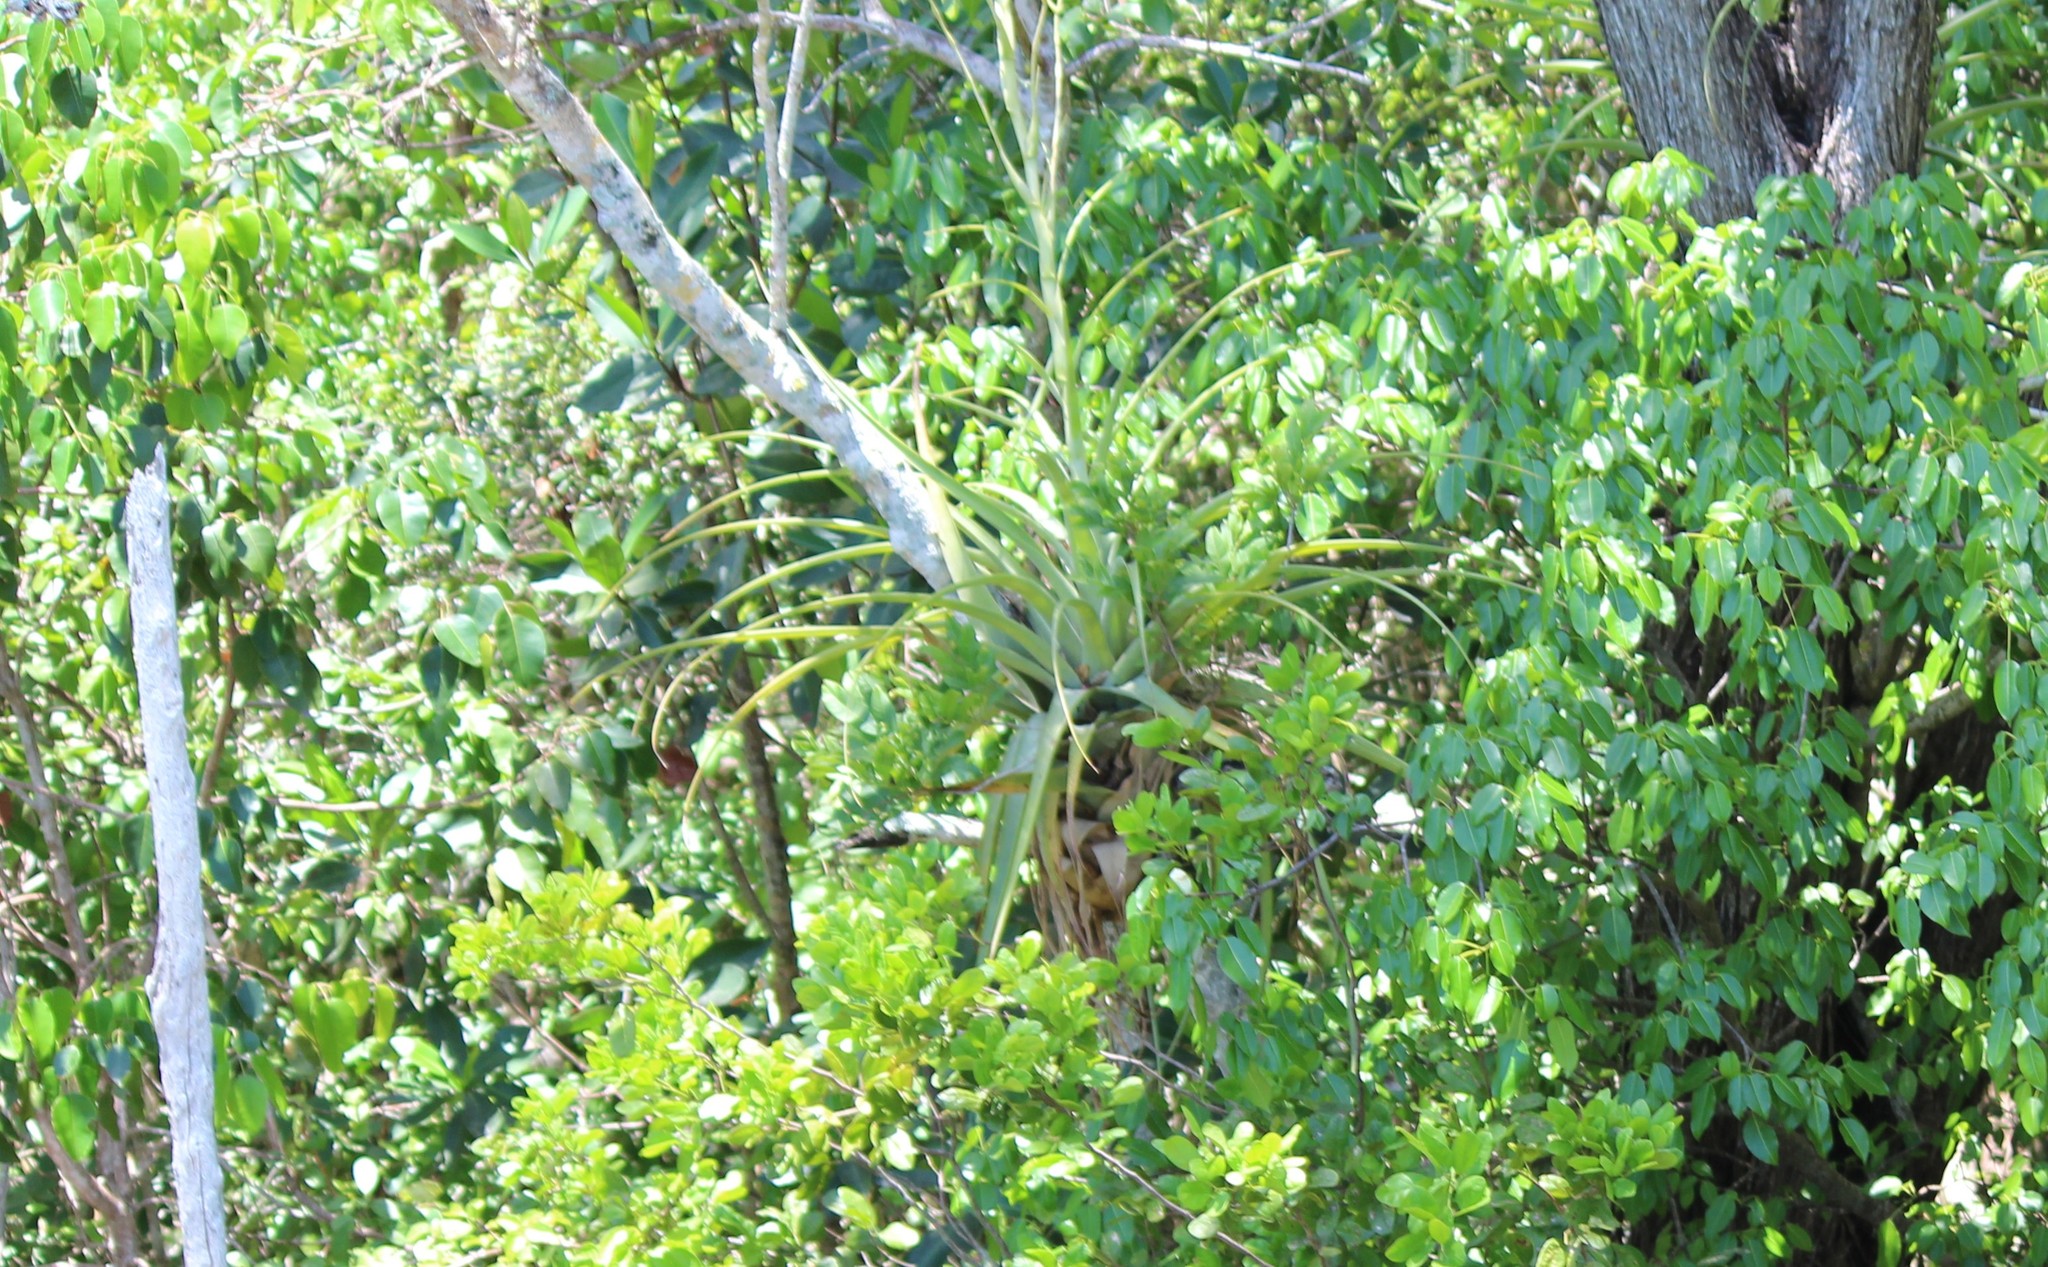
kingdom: Plantae
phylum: Tracheophyta
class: Liliopsida
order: Poales
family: Bromeliaceae
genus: Tillandsia
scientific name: Tillandsia utriculata
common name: Wild pine
